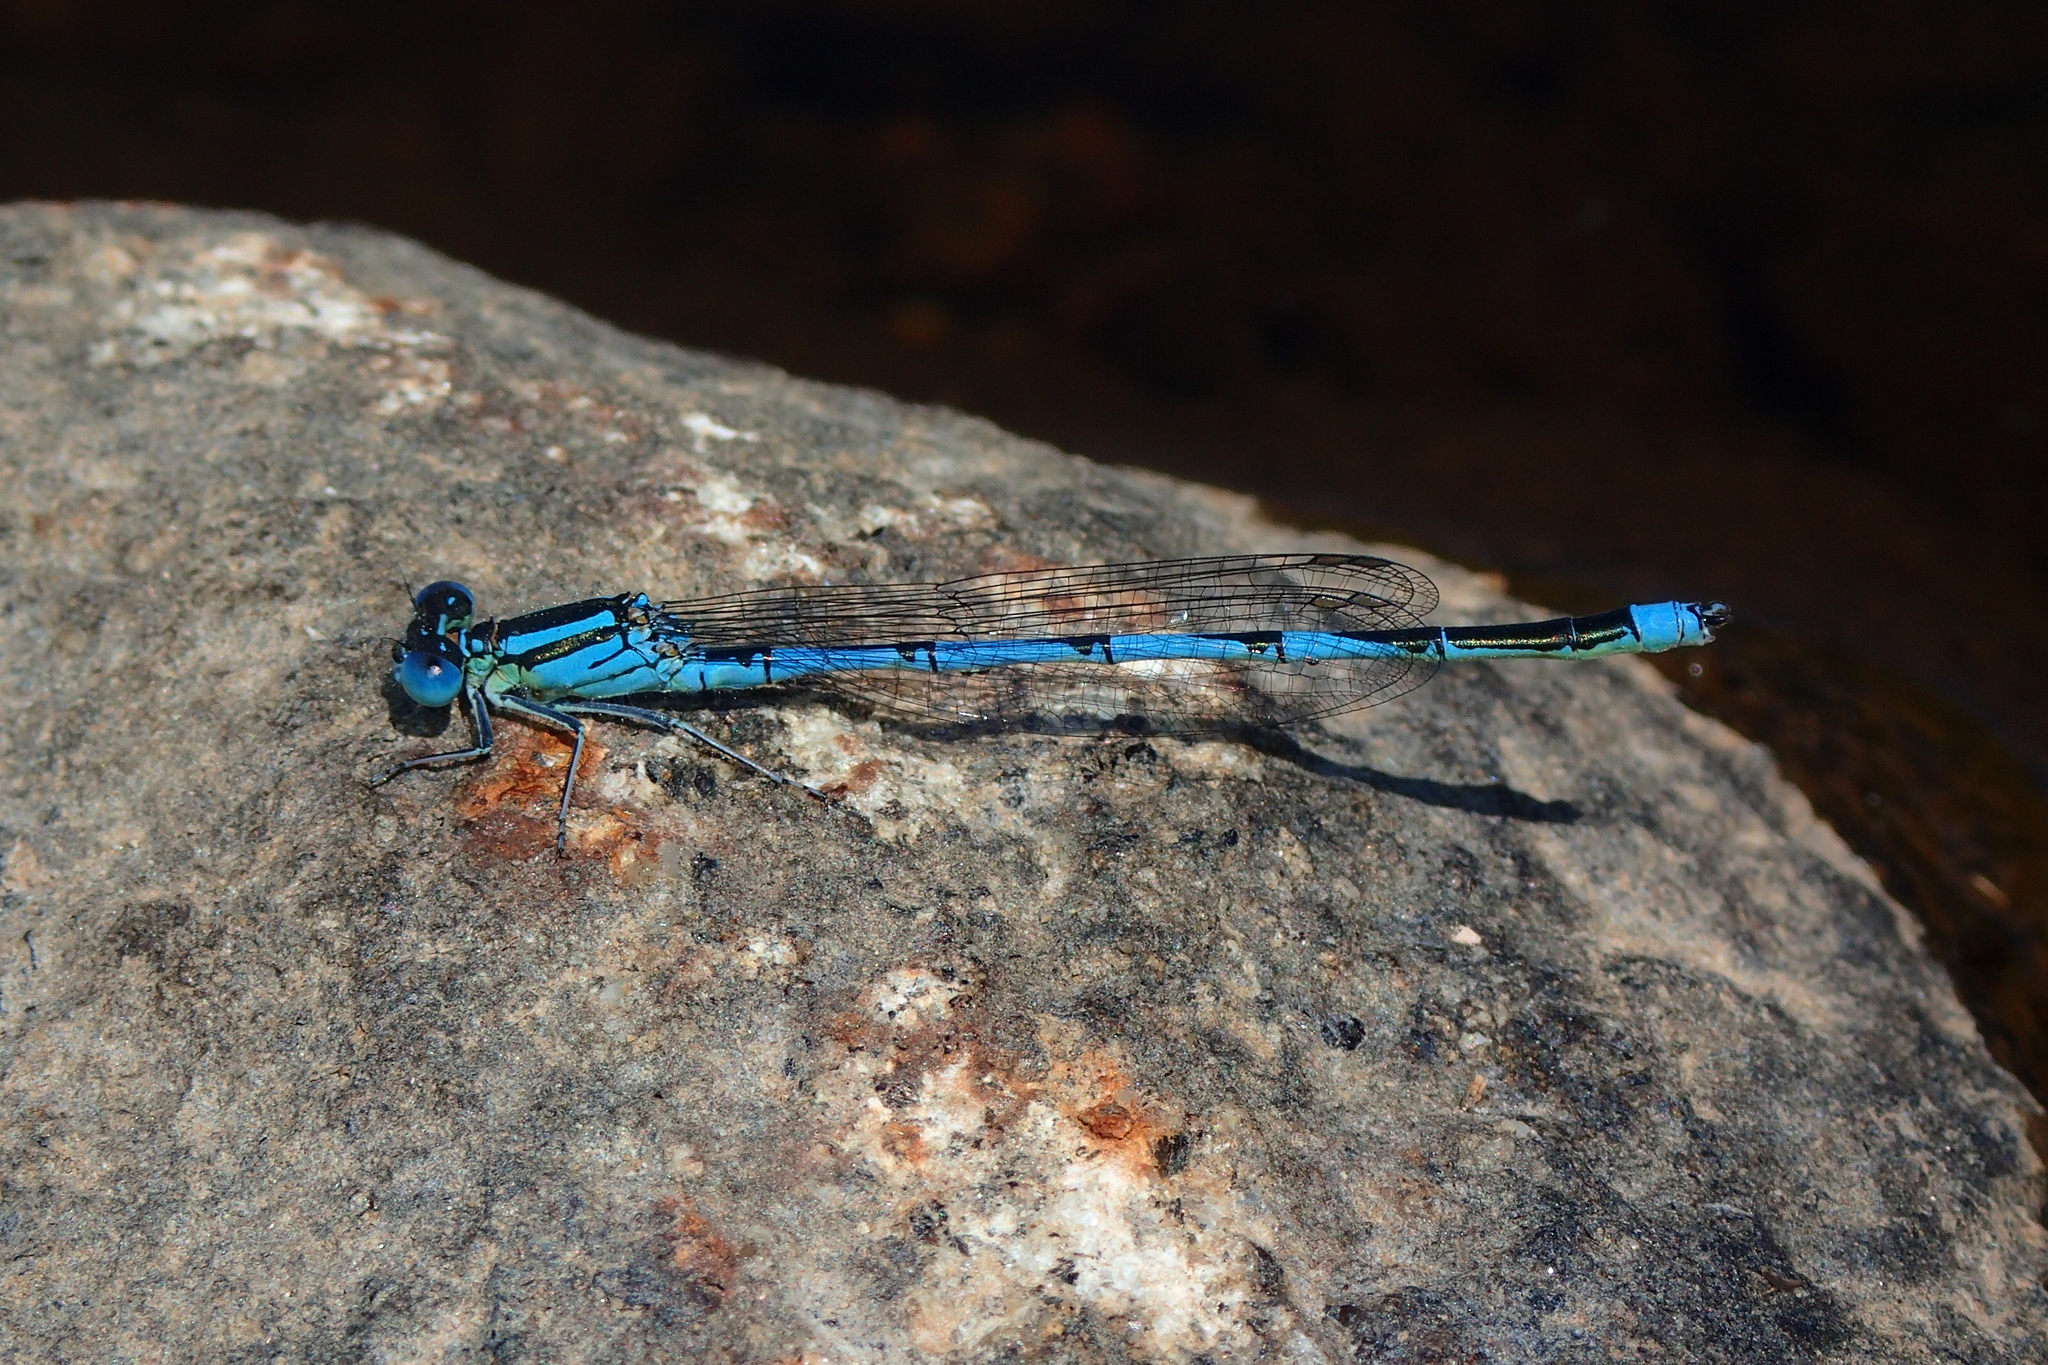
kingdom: Animalia
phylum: Arthropoda
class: Insecta
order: Odonata
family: Coenagrionidae
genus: Erythromma
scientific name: Erythromma lindenii
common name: Blue-eye
